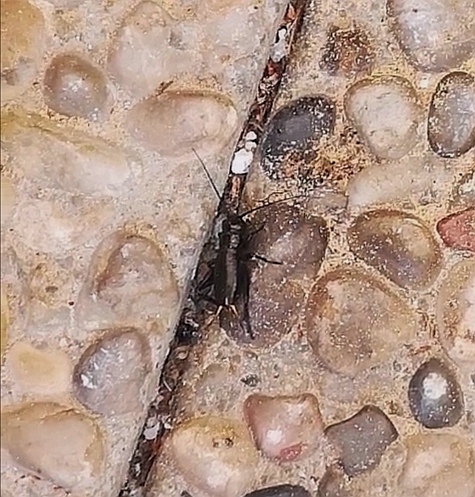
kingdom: Animalia
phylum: Arthropoda
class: Insecta
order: Orthoptera
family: Gryllidae
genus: Gryllus
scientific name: Gryllus campestris
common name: Field cricket
